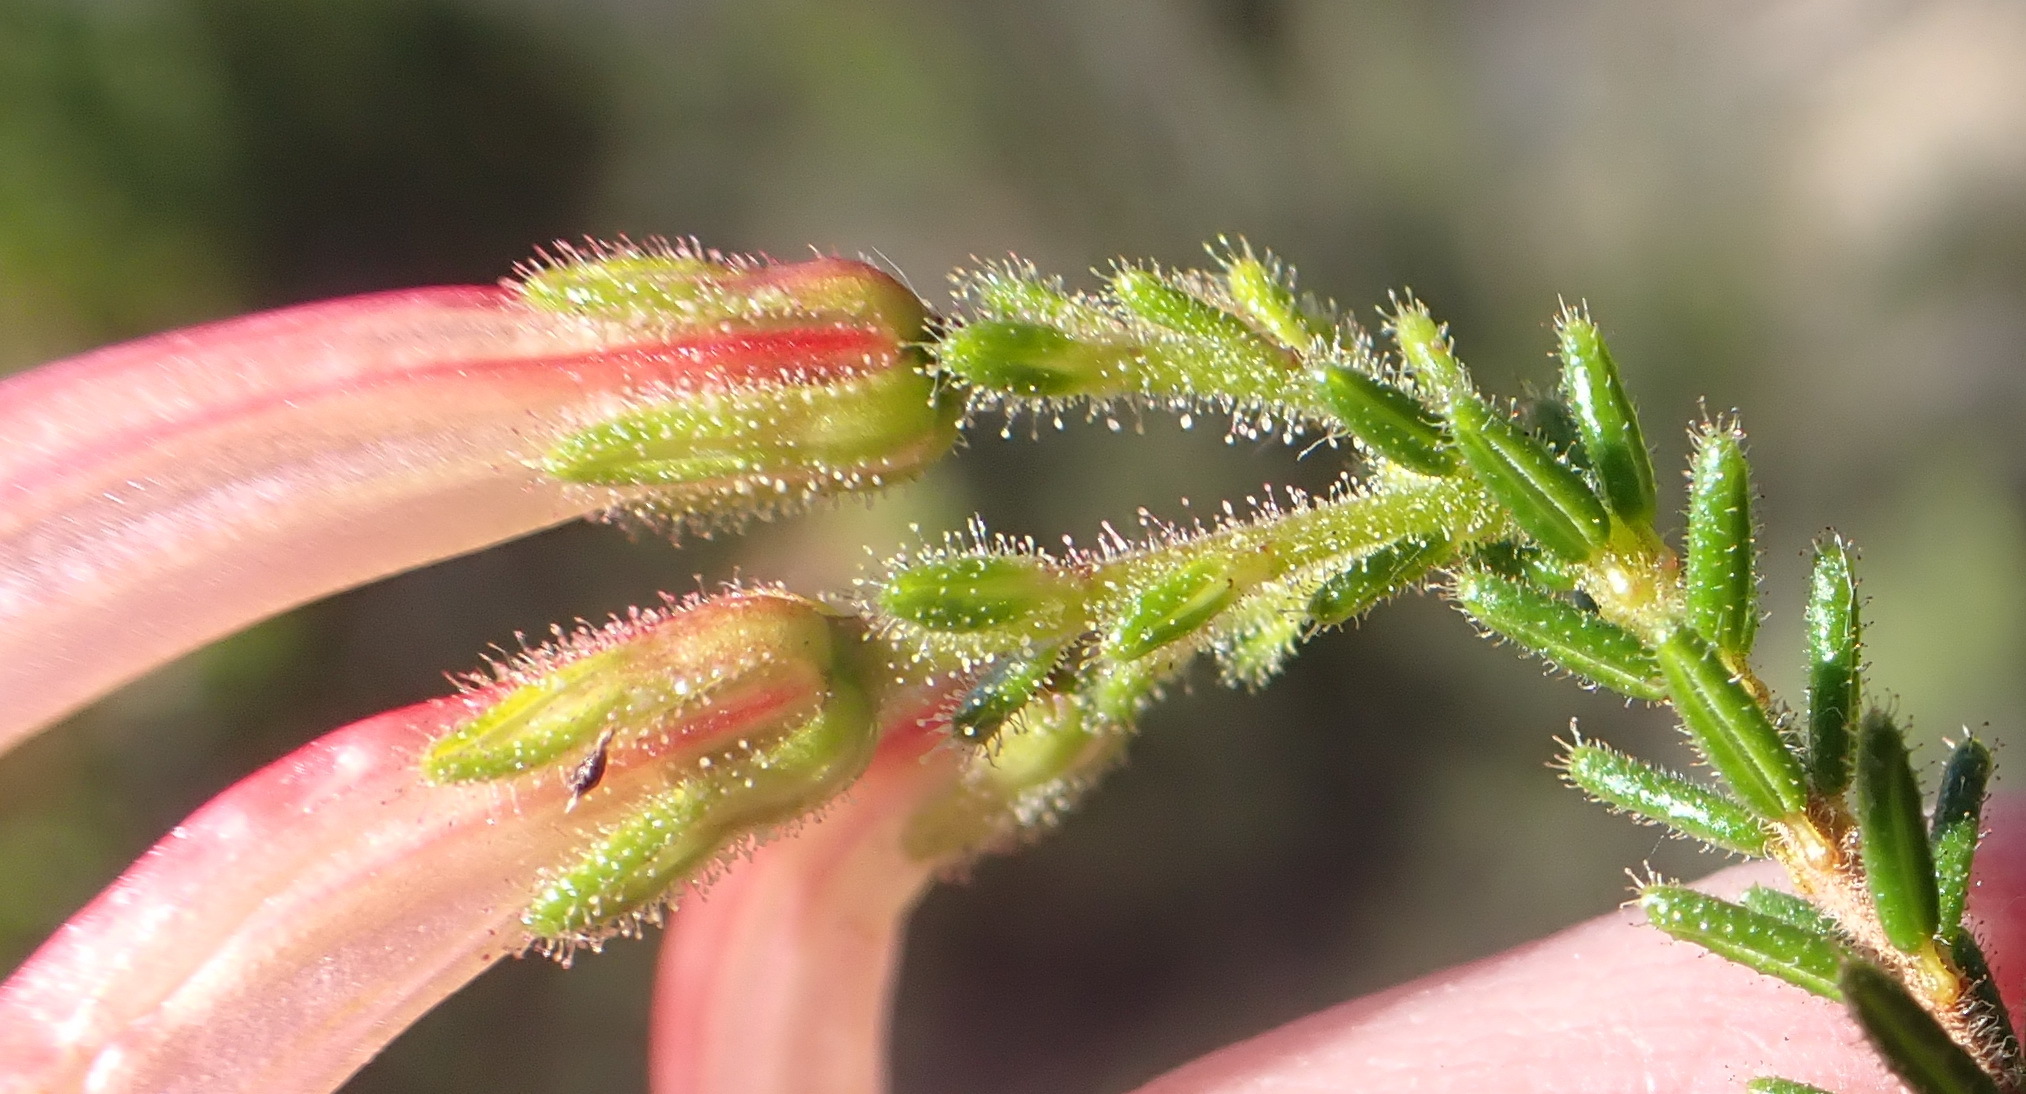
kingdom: Plantae
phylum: Tracheophyta
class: Magnoliopsida
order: Ericales
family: Ericaceae
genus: Erica
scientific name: Erica glandulosa
